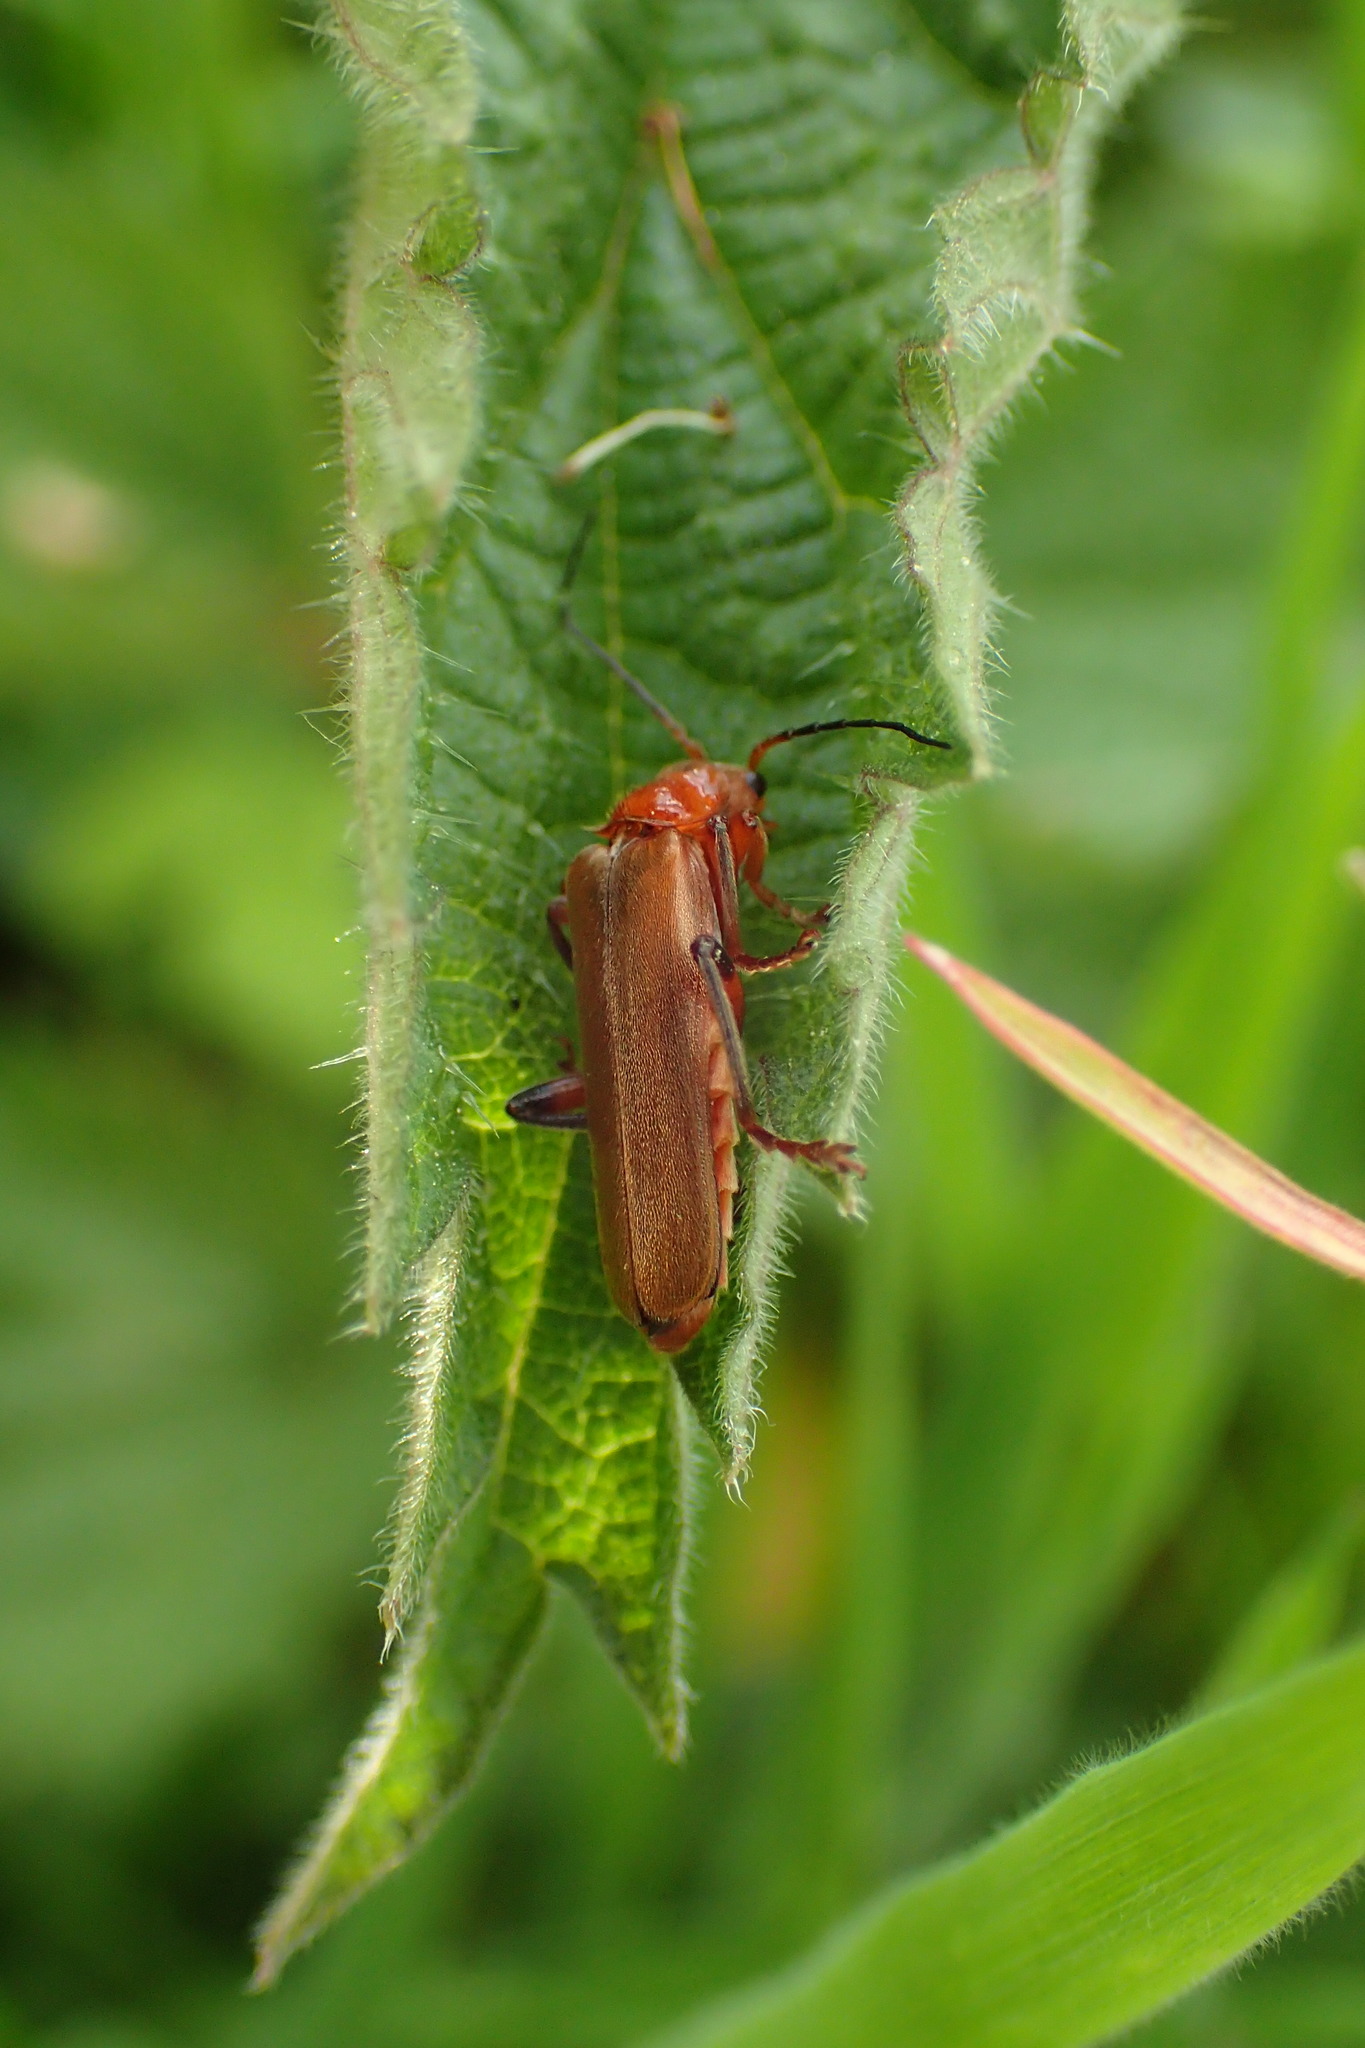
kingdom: Animalia
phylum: Arthropoda
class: Insecta
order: Coleoptera
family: Cantharidae
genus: Cantharis
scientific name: Cantharis livida
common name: Livid soldier beetle
